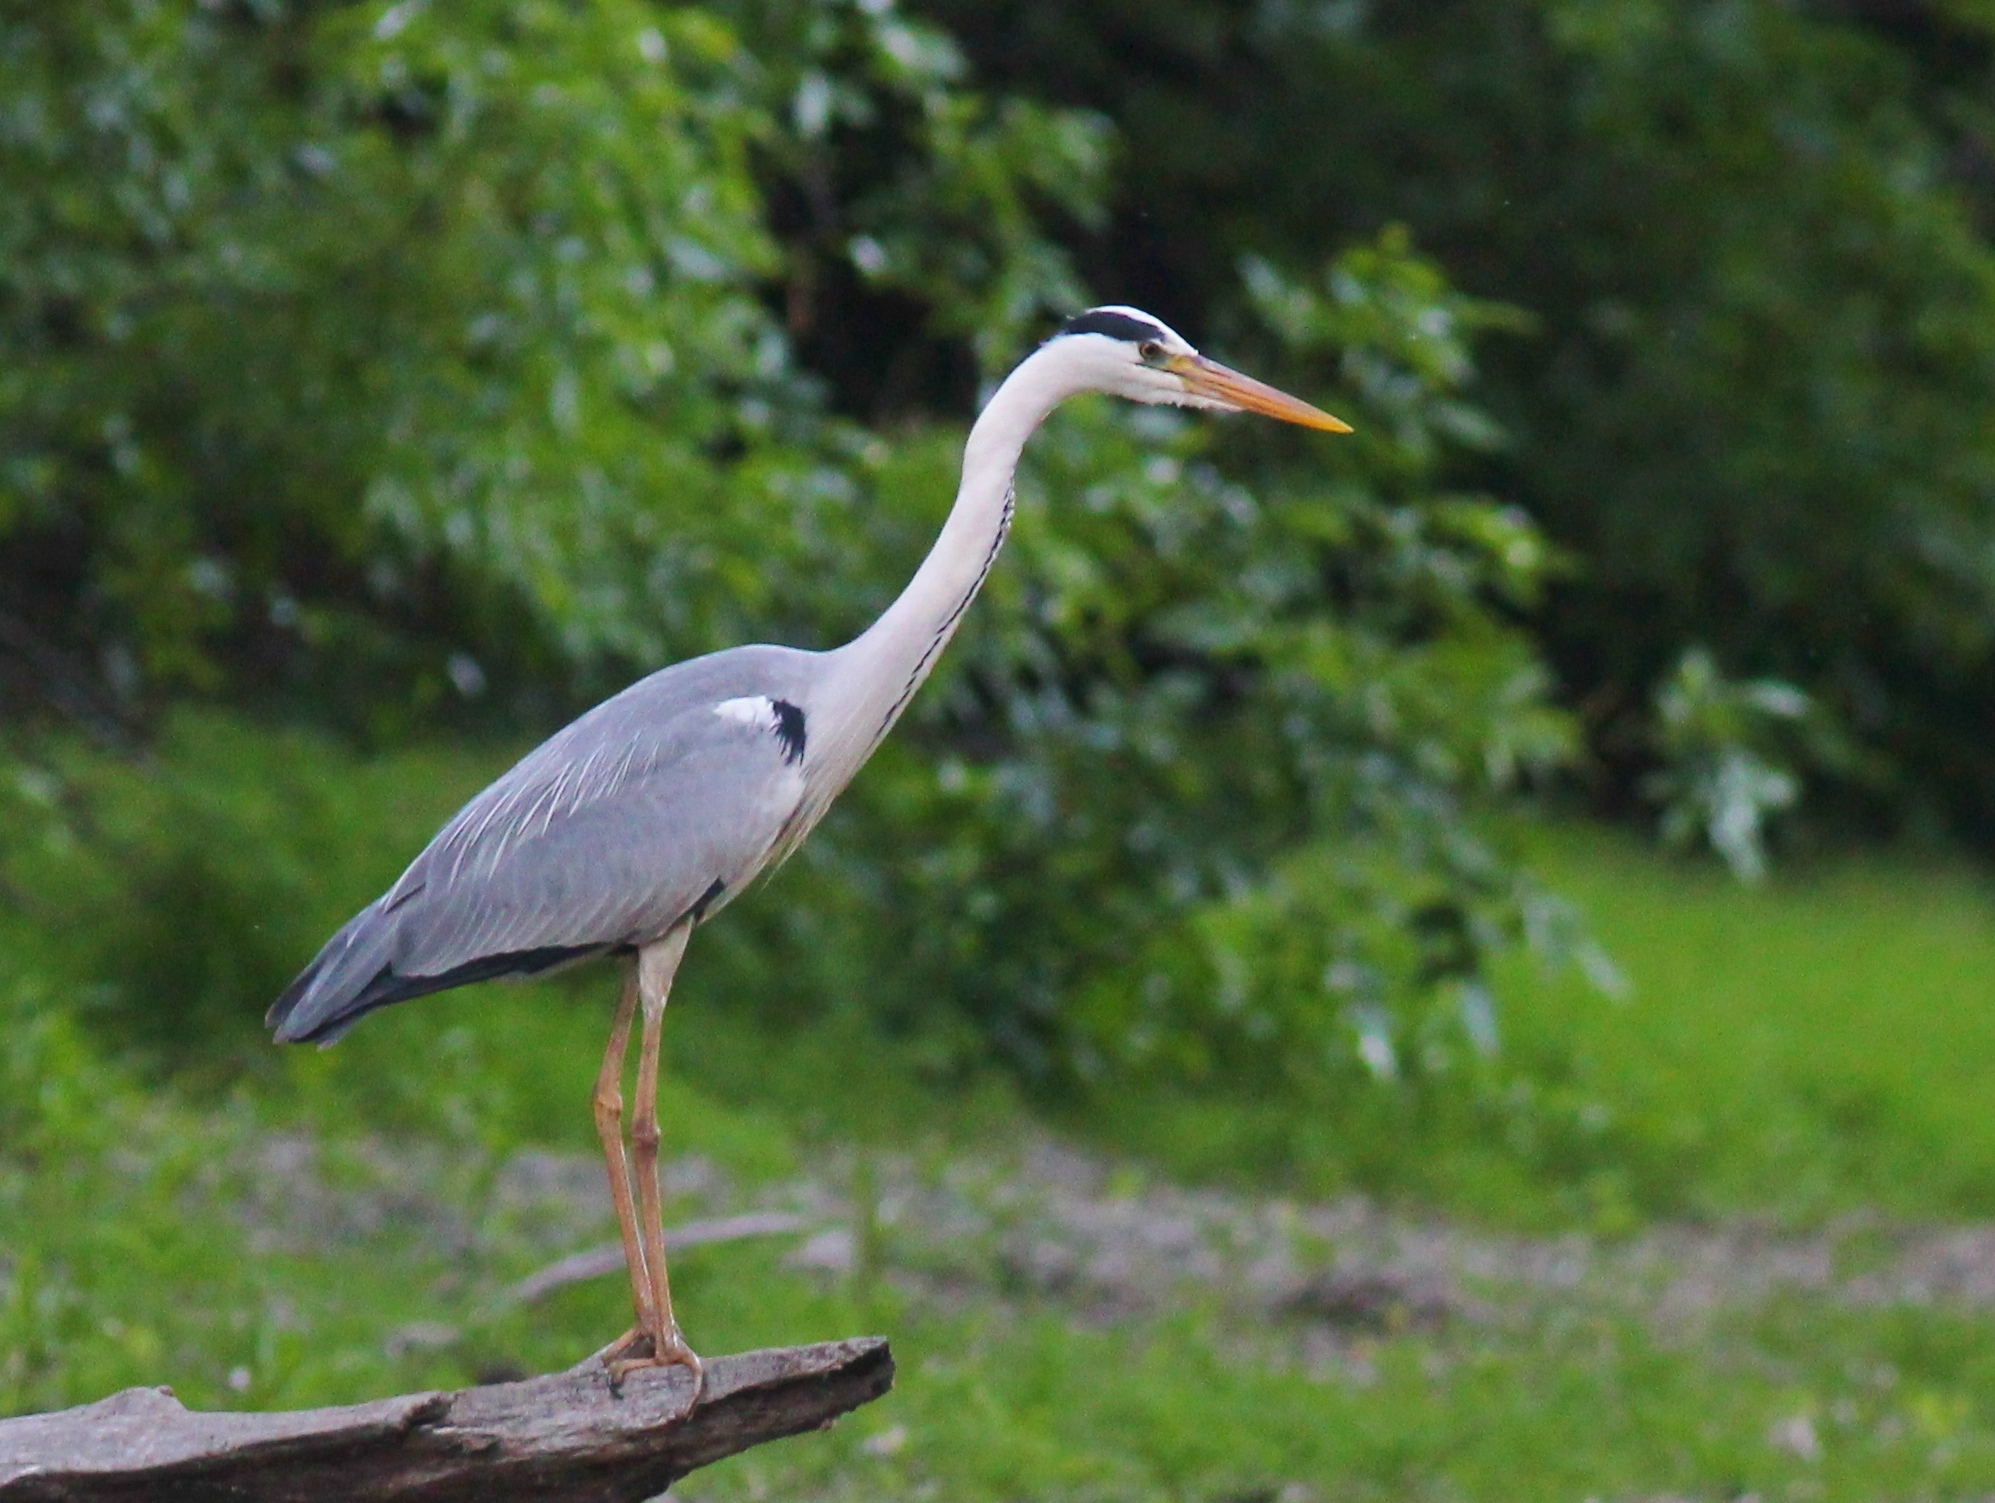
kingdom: Animalia
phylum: Chordata
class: Aves
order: Pelecaniformes
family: Ardeidae
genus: Ardea
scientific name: Ardea cinerea
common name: Grey heron
